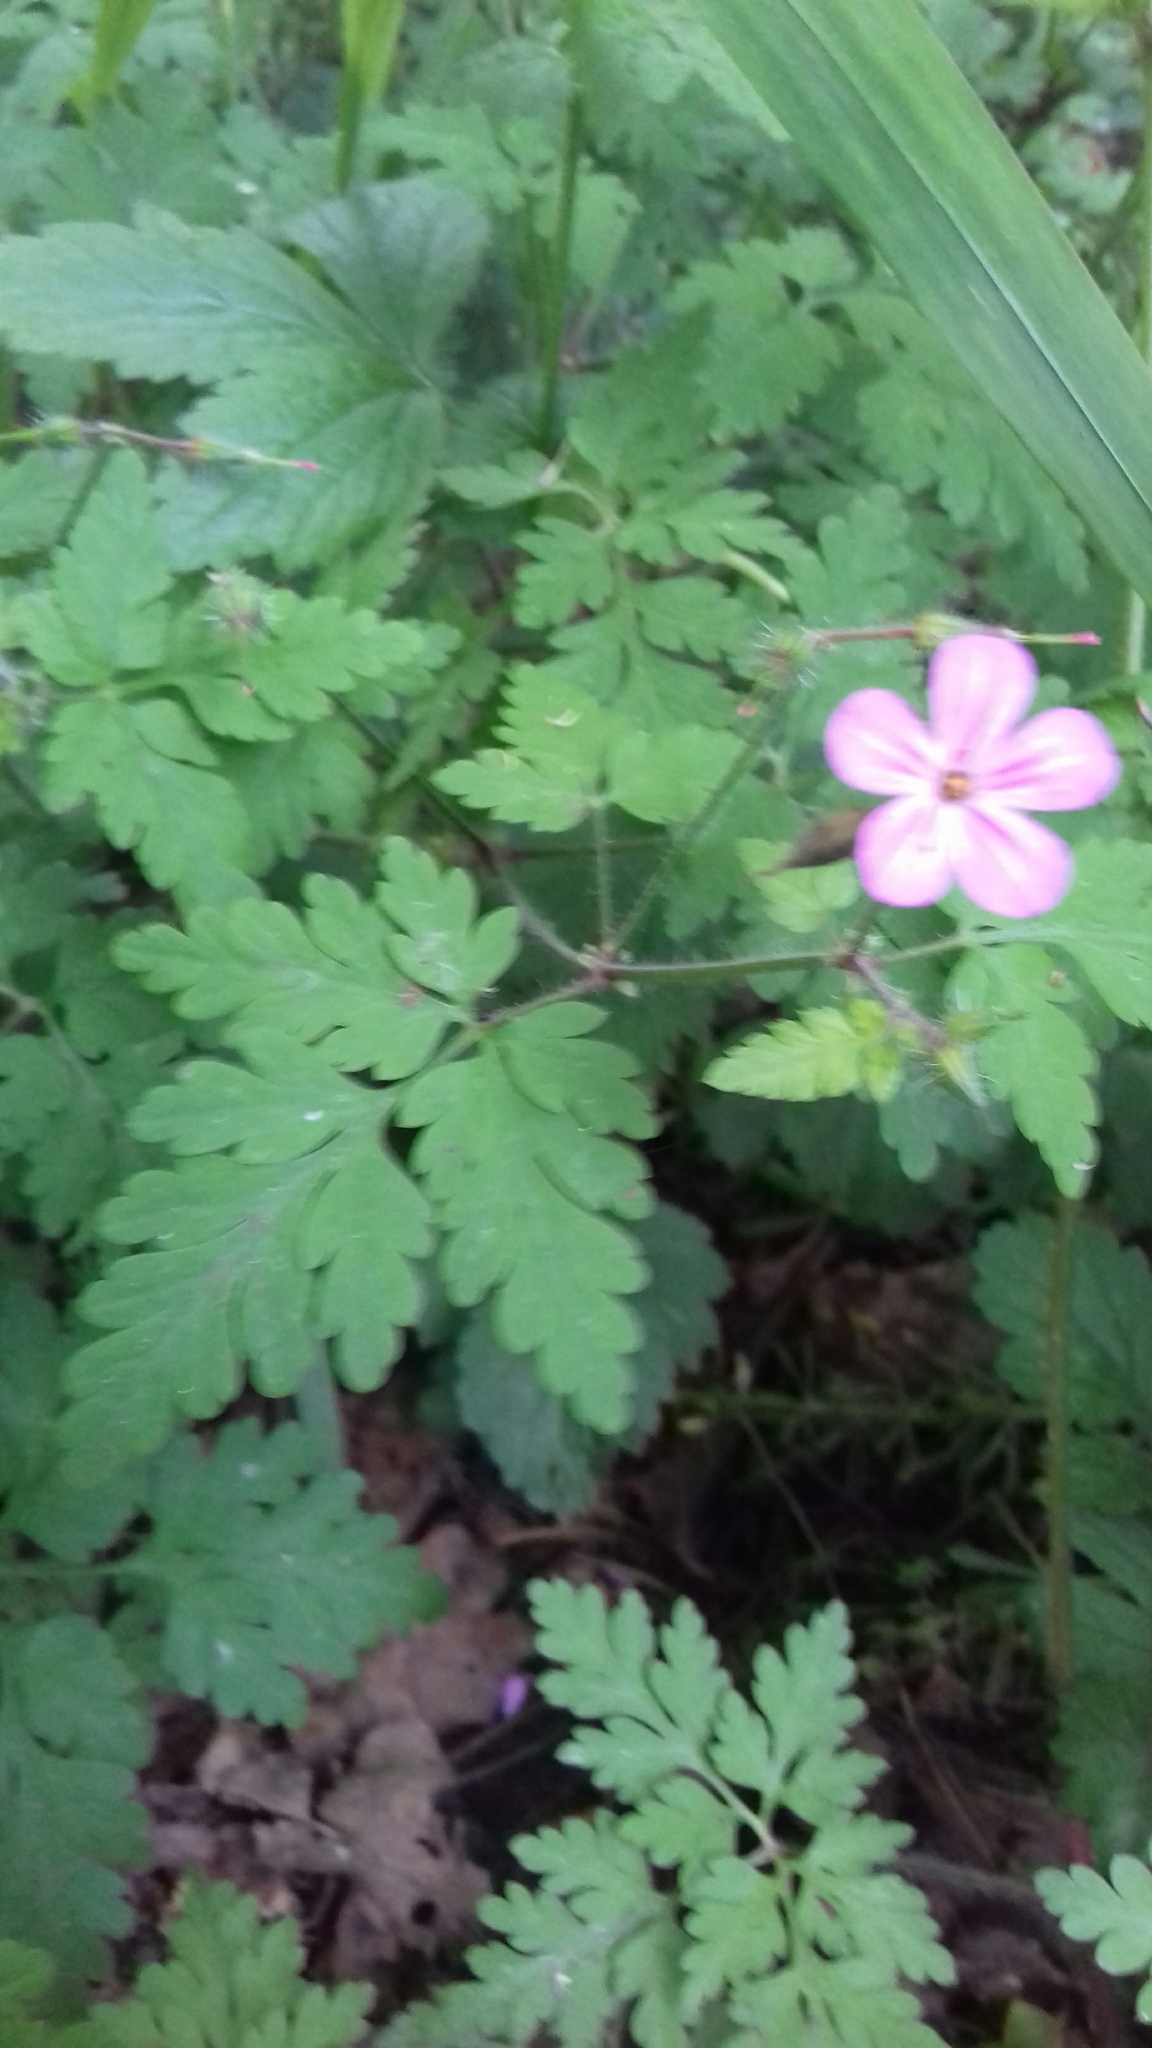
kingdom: Plantae
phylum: Tracheophyta
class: Magnoliopsida
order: Geraniales
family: Geraniaceae
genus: Geranium
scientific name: Geranium robertianum
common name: Herb-robert
